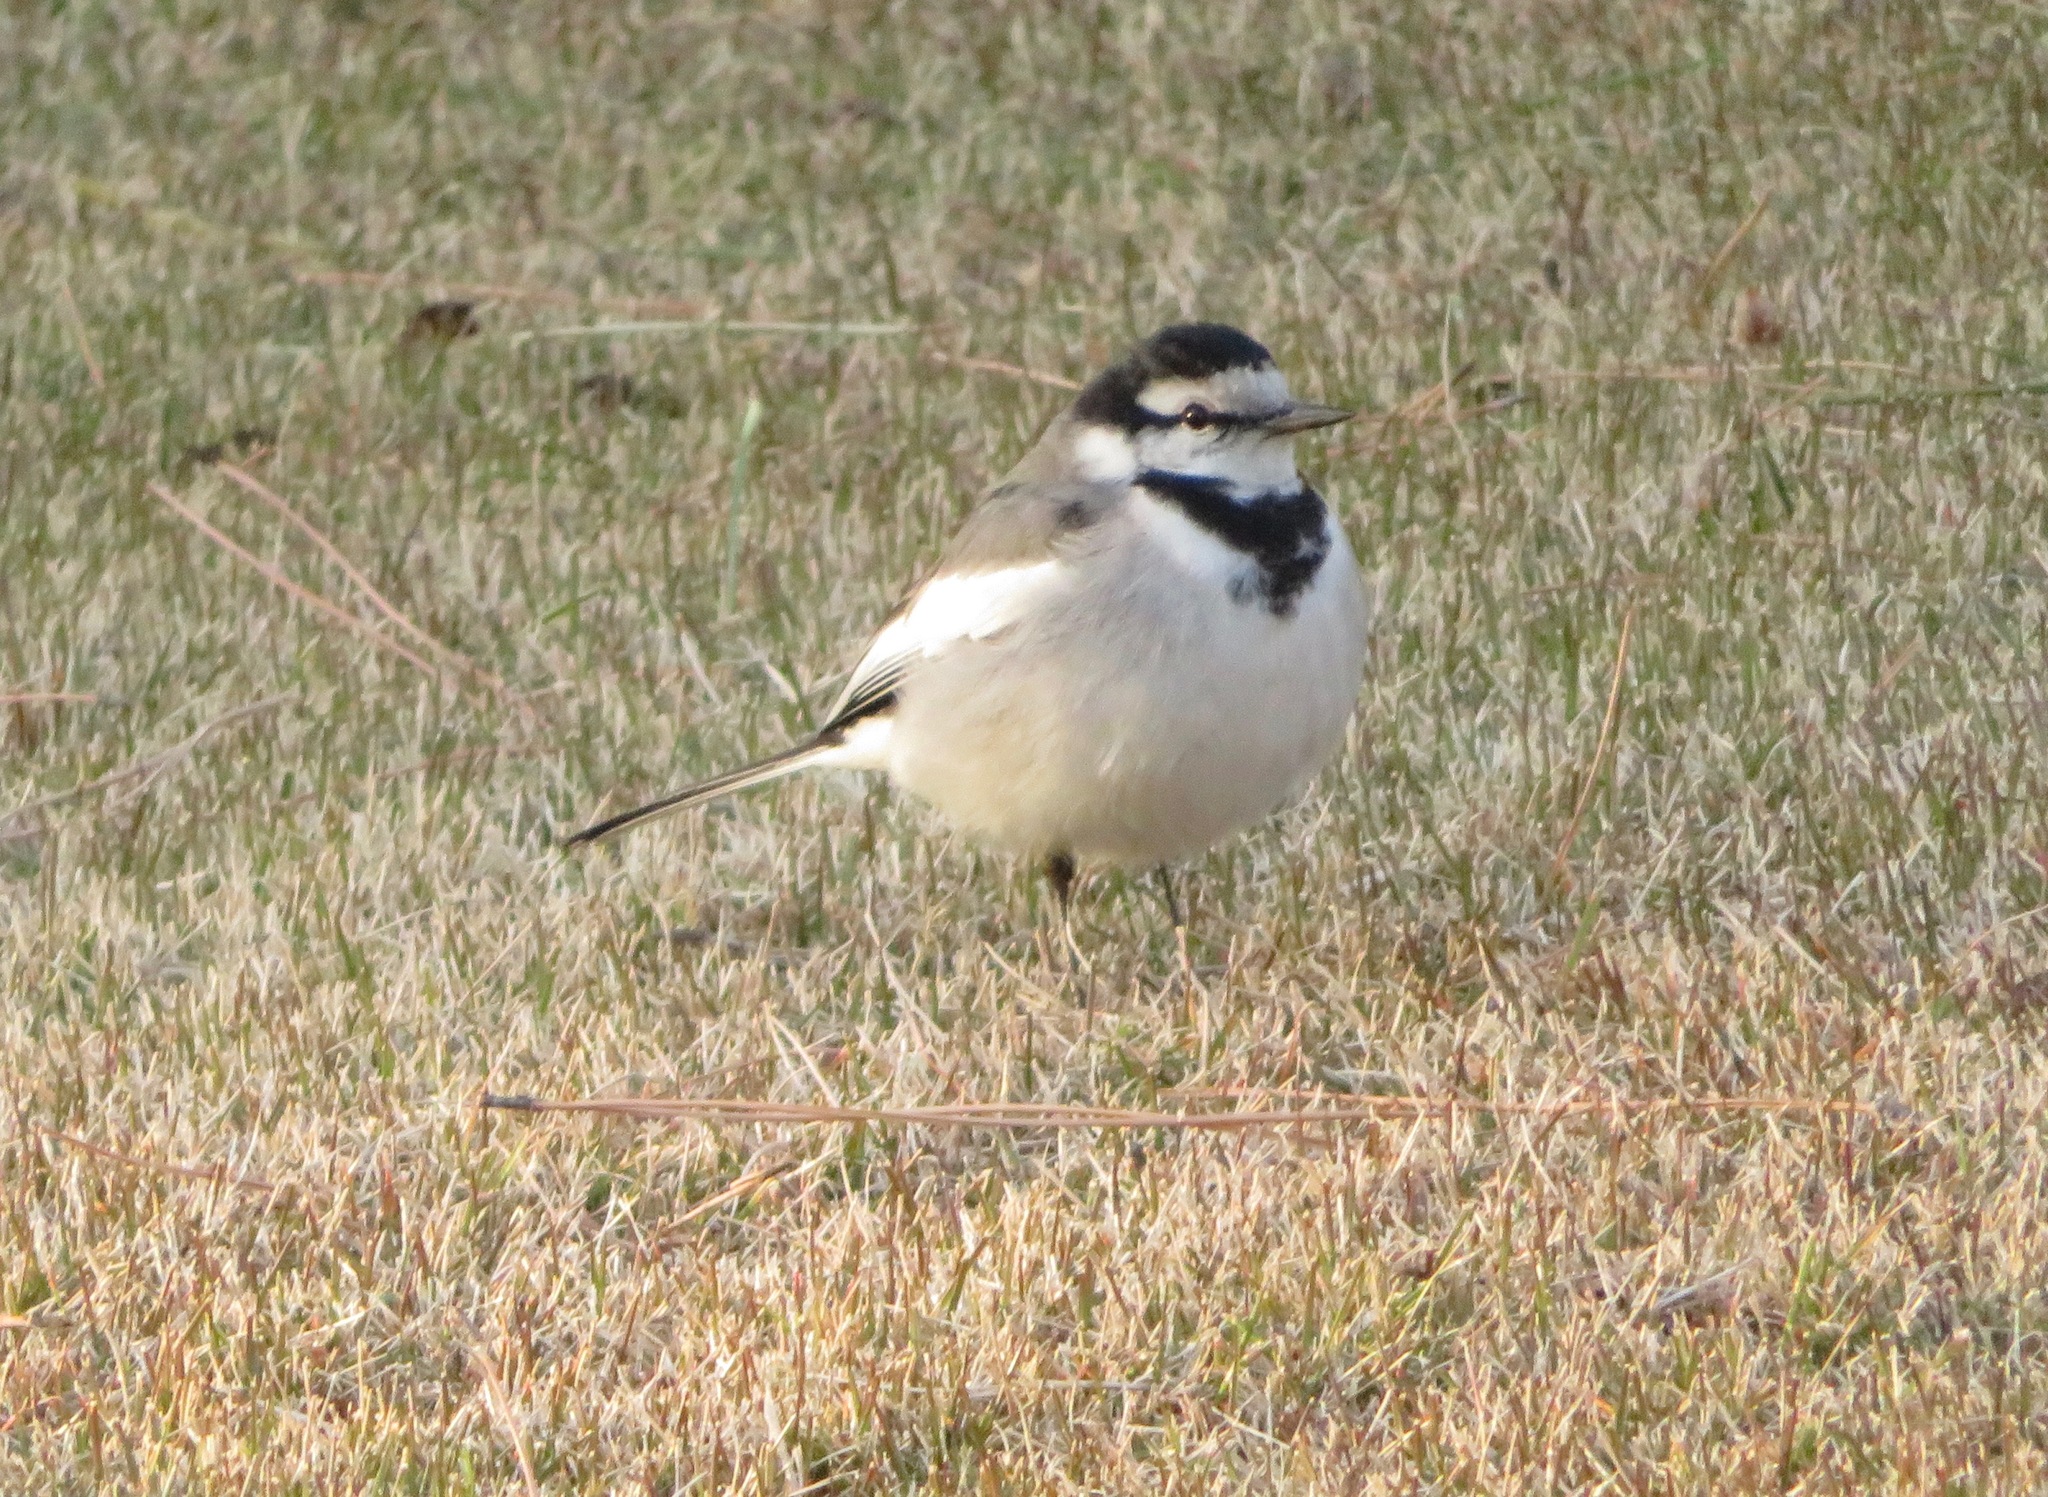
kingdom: Animalia
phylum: Chordata
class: Aves
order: Passeriformes
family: Motacillidae
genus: Motacilla
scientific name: Motacilla alba
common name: White wagtail
